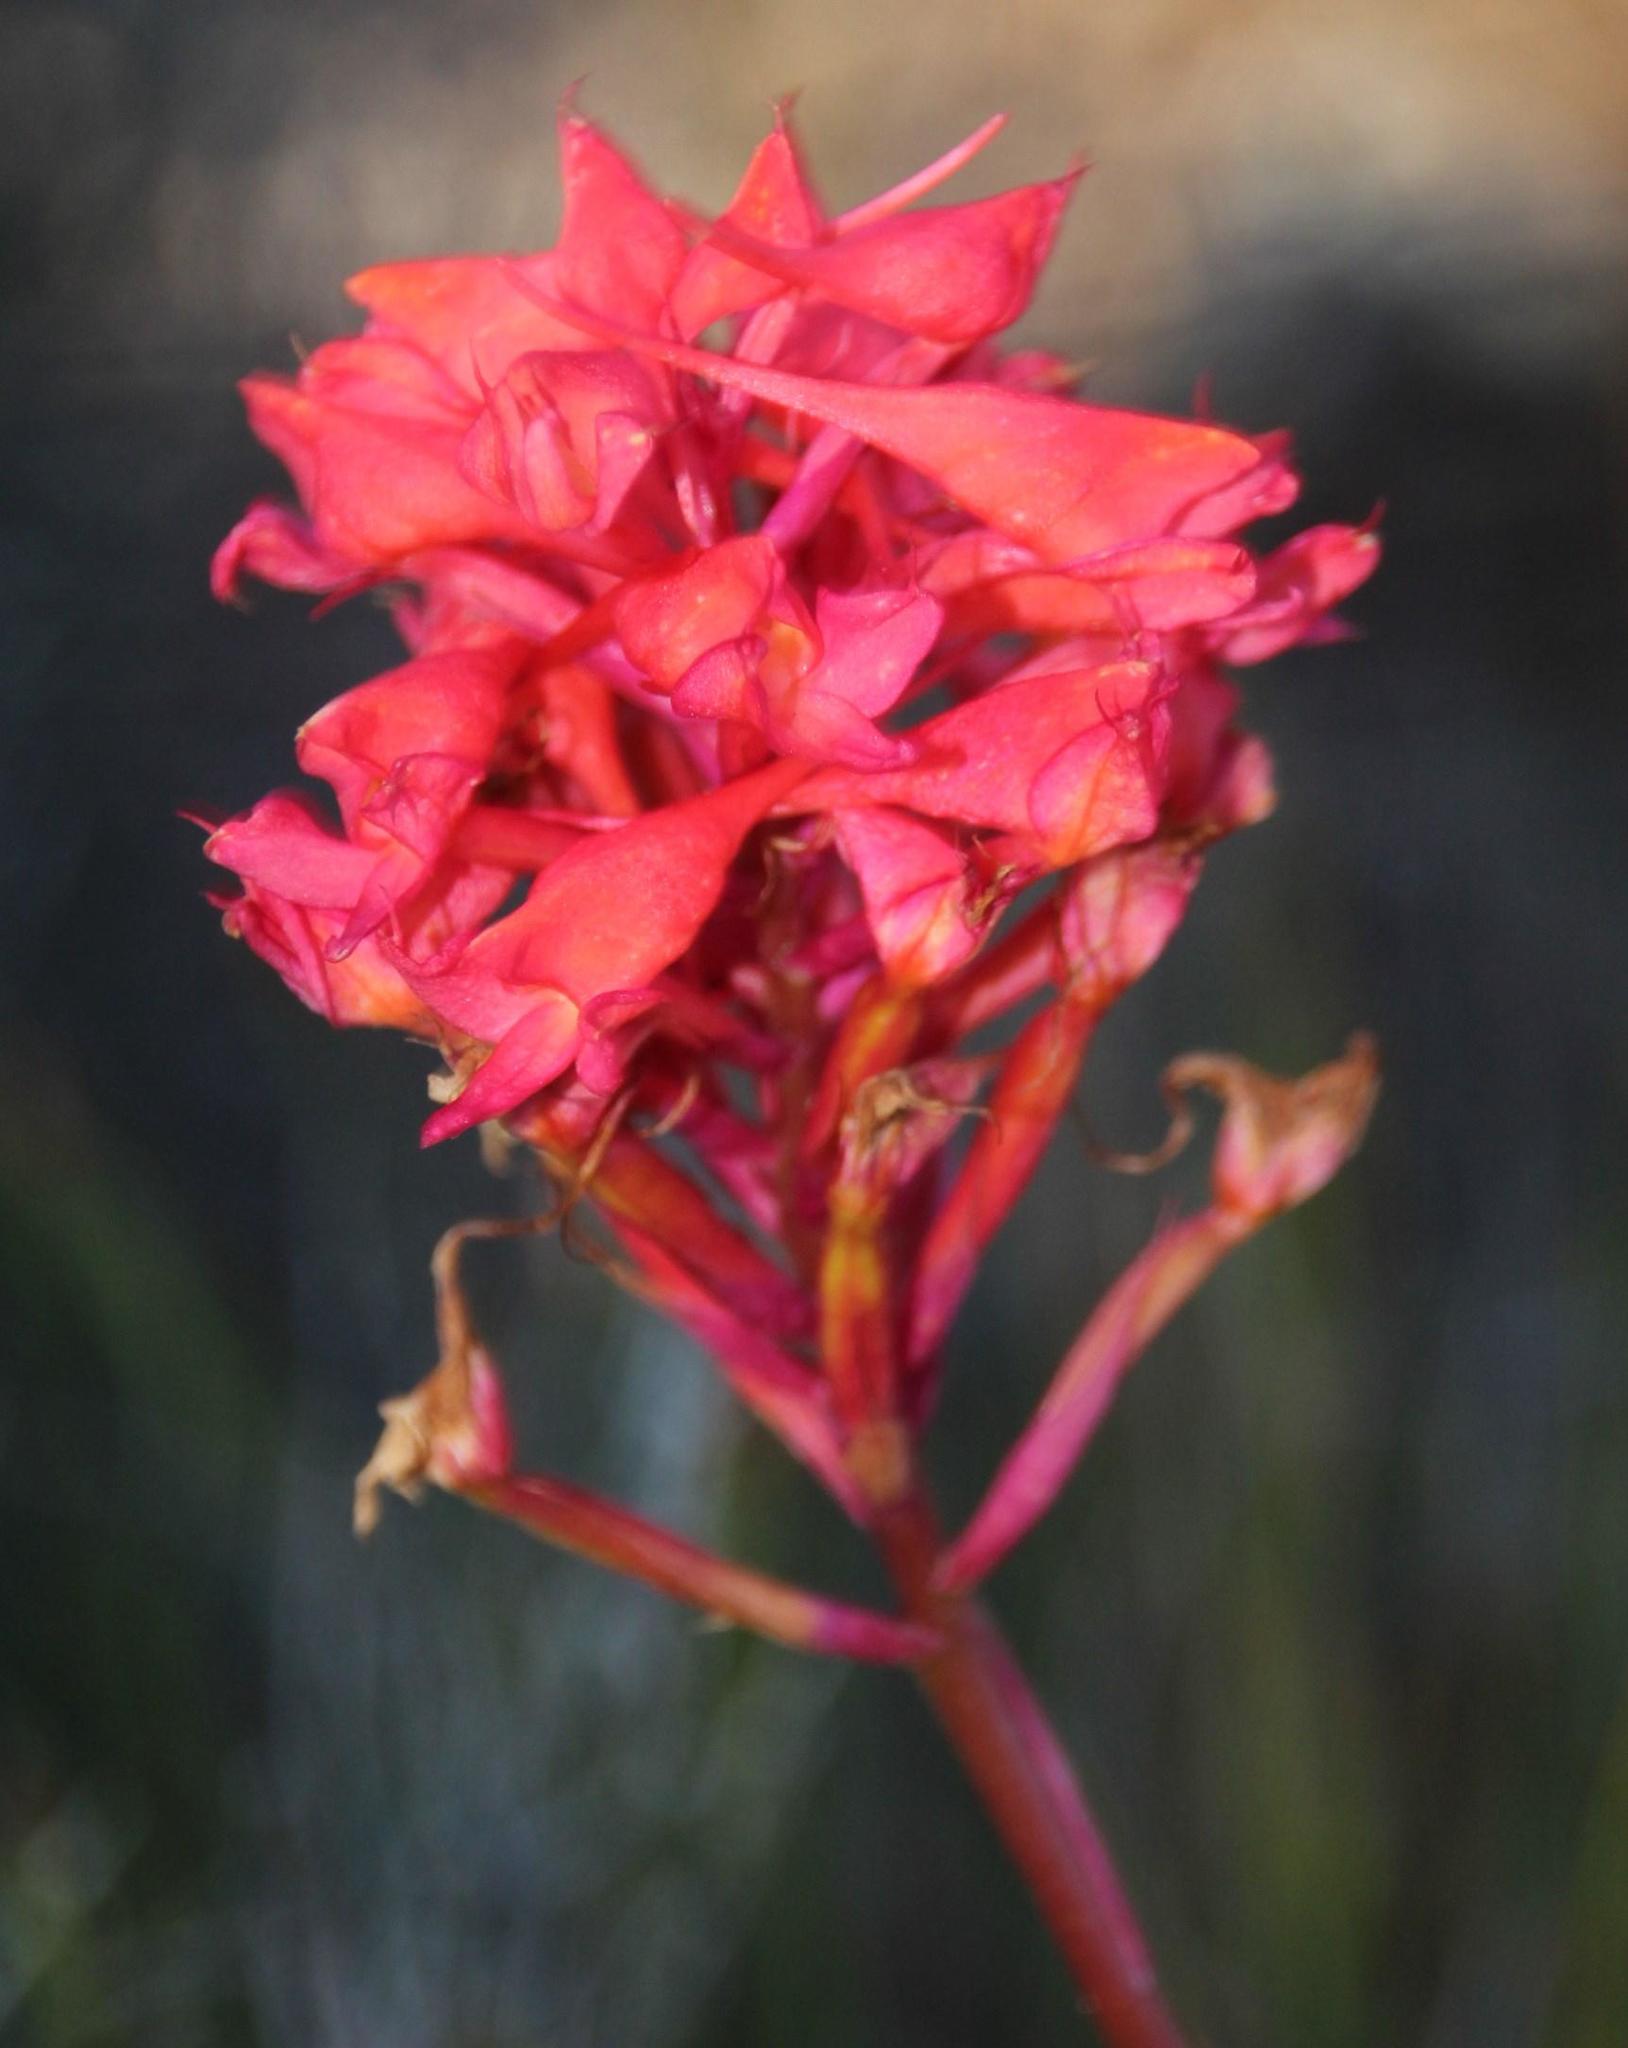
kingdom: Plantae
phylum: Tracheophyta
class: Liliopsida
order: Asparagales
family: Orchidaceae
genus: Disa
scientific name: Disa ferruginea
